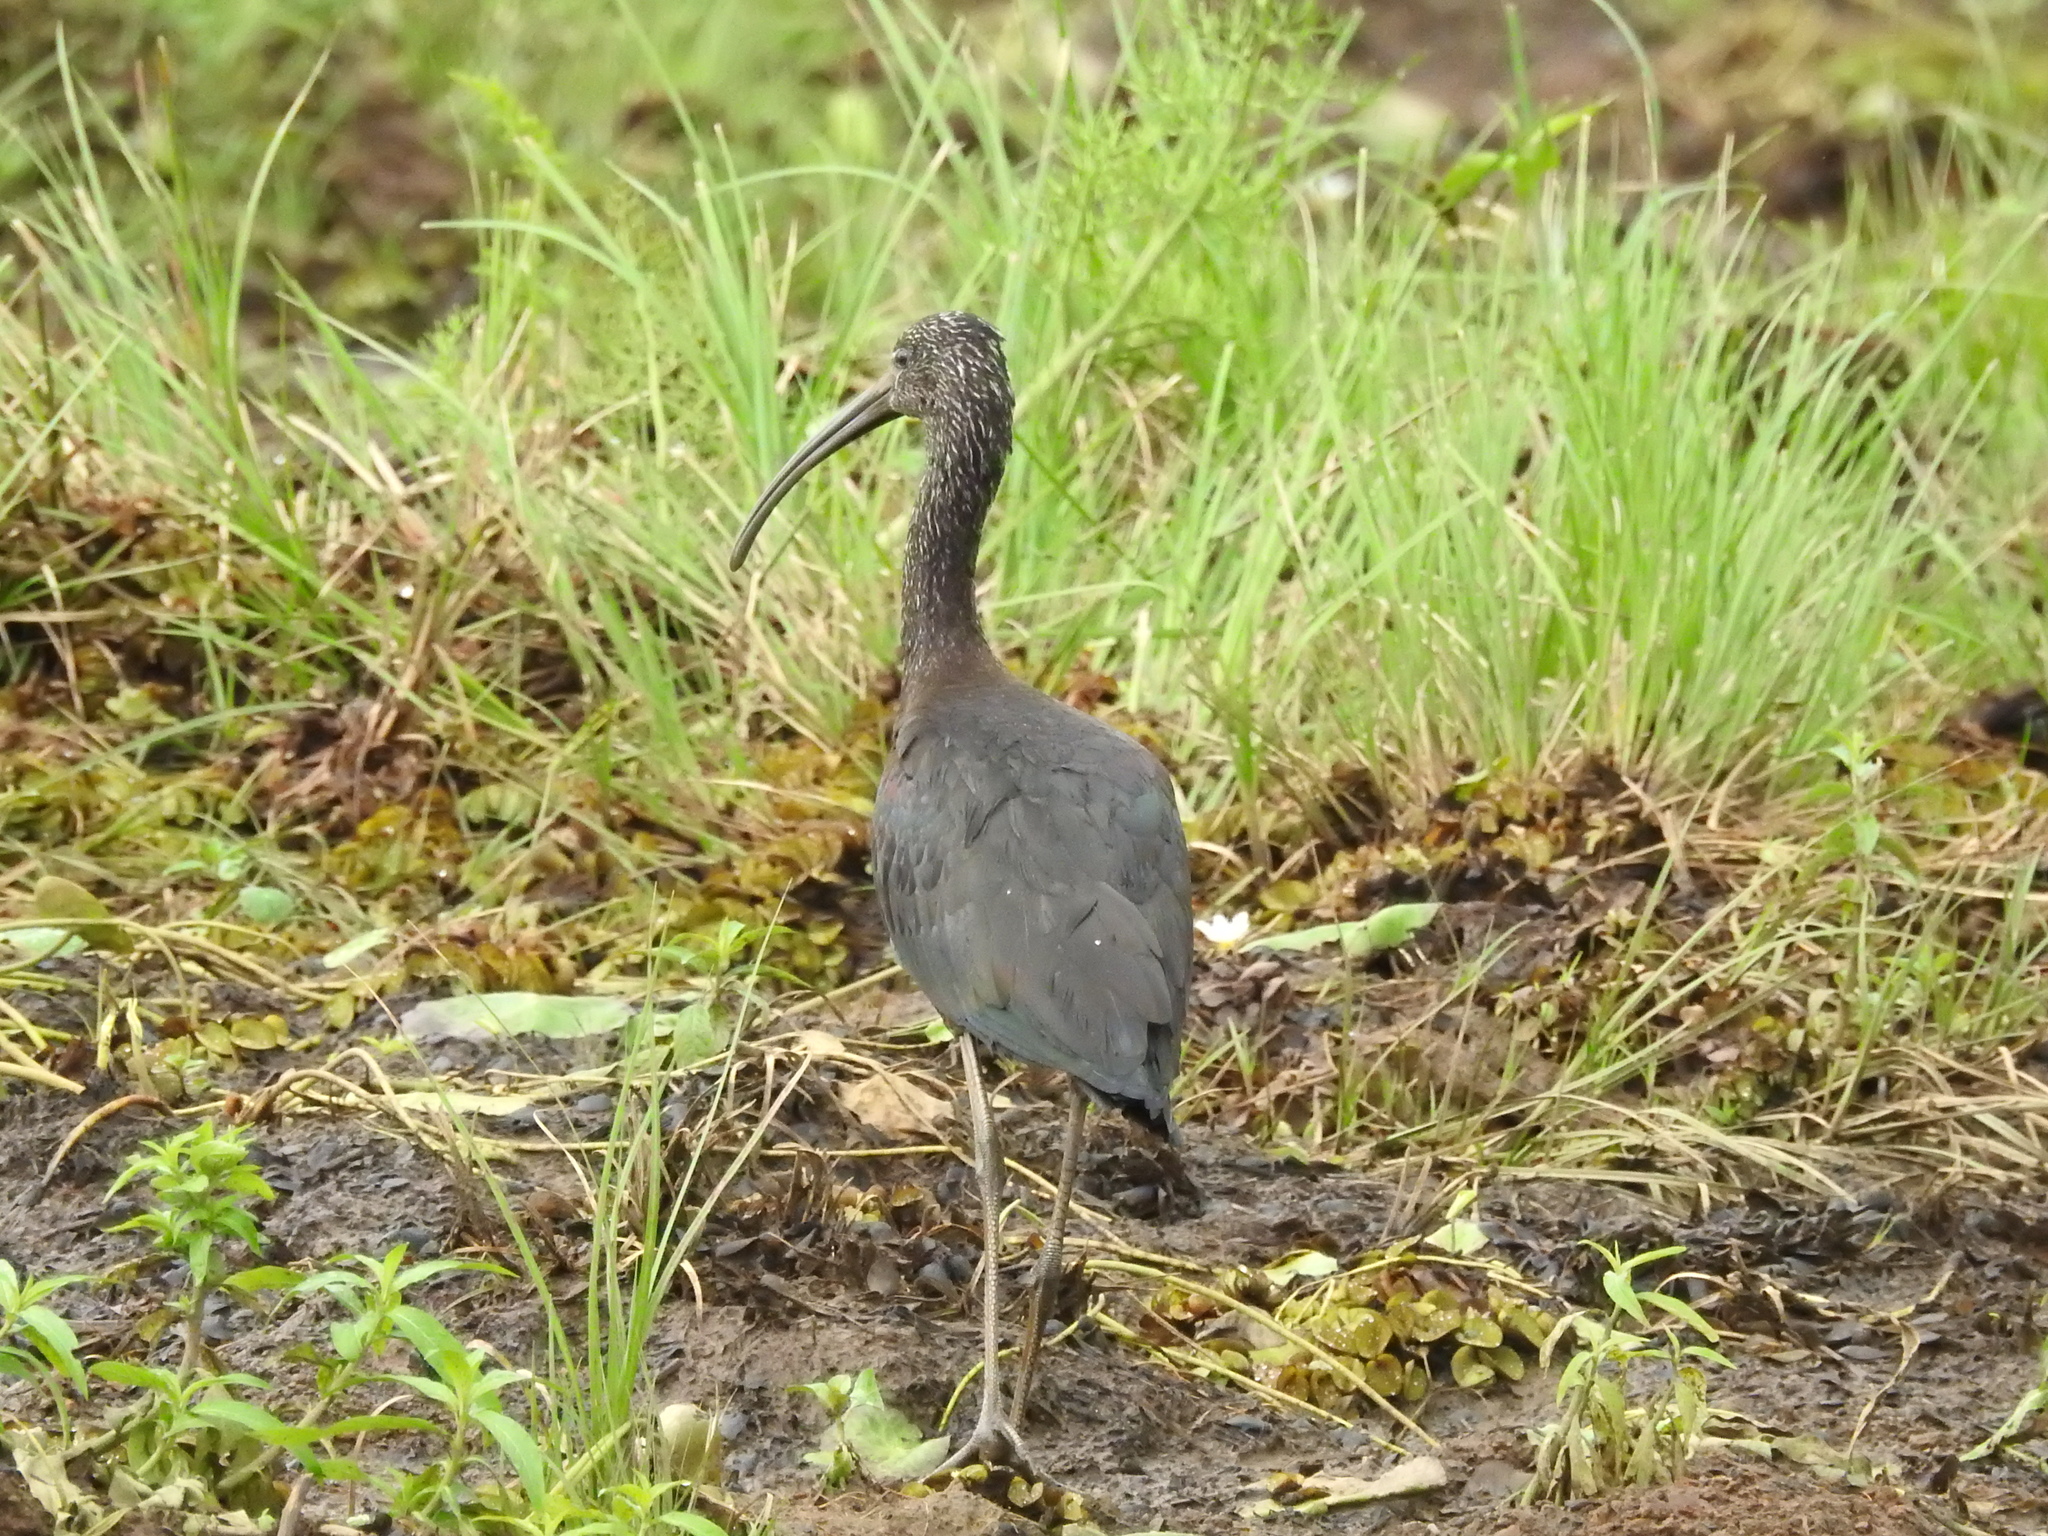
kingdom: Animalia
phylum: Chordata
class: Aves
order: Pelecaniformes
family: Threskiornithidae
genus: Plegadis
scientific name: Plegadis falcinellus
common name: Glossy ibis
